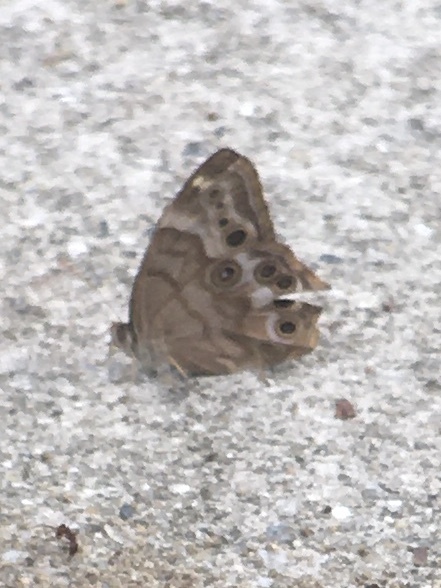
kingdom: Animalia
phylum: Arthropoda
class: Insecta
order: Lepidoptera
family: Nymphalidae
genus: Enodia
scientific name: Enodia portlandia
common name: Southern pearly-eye
